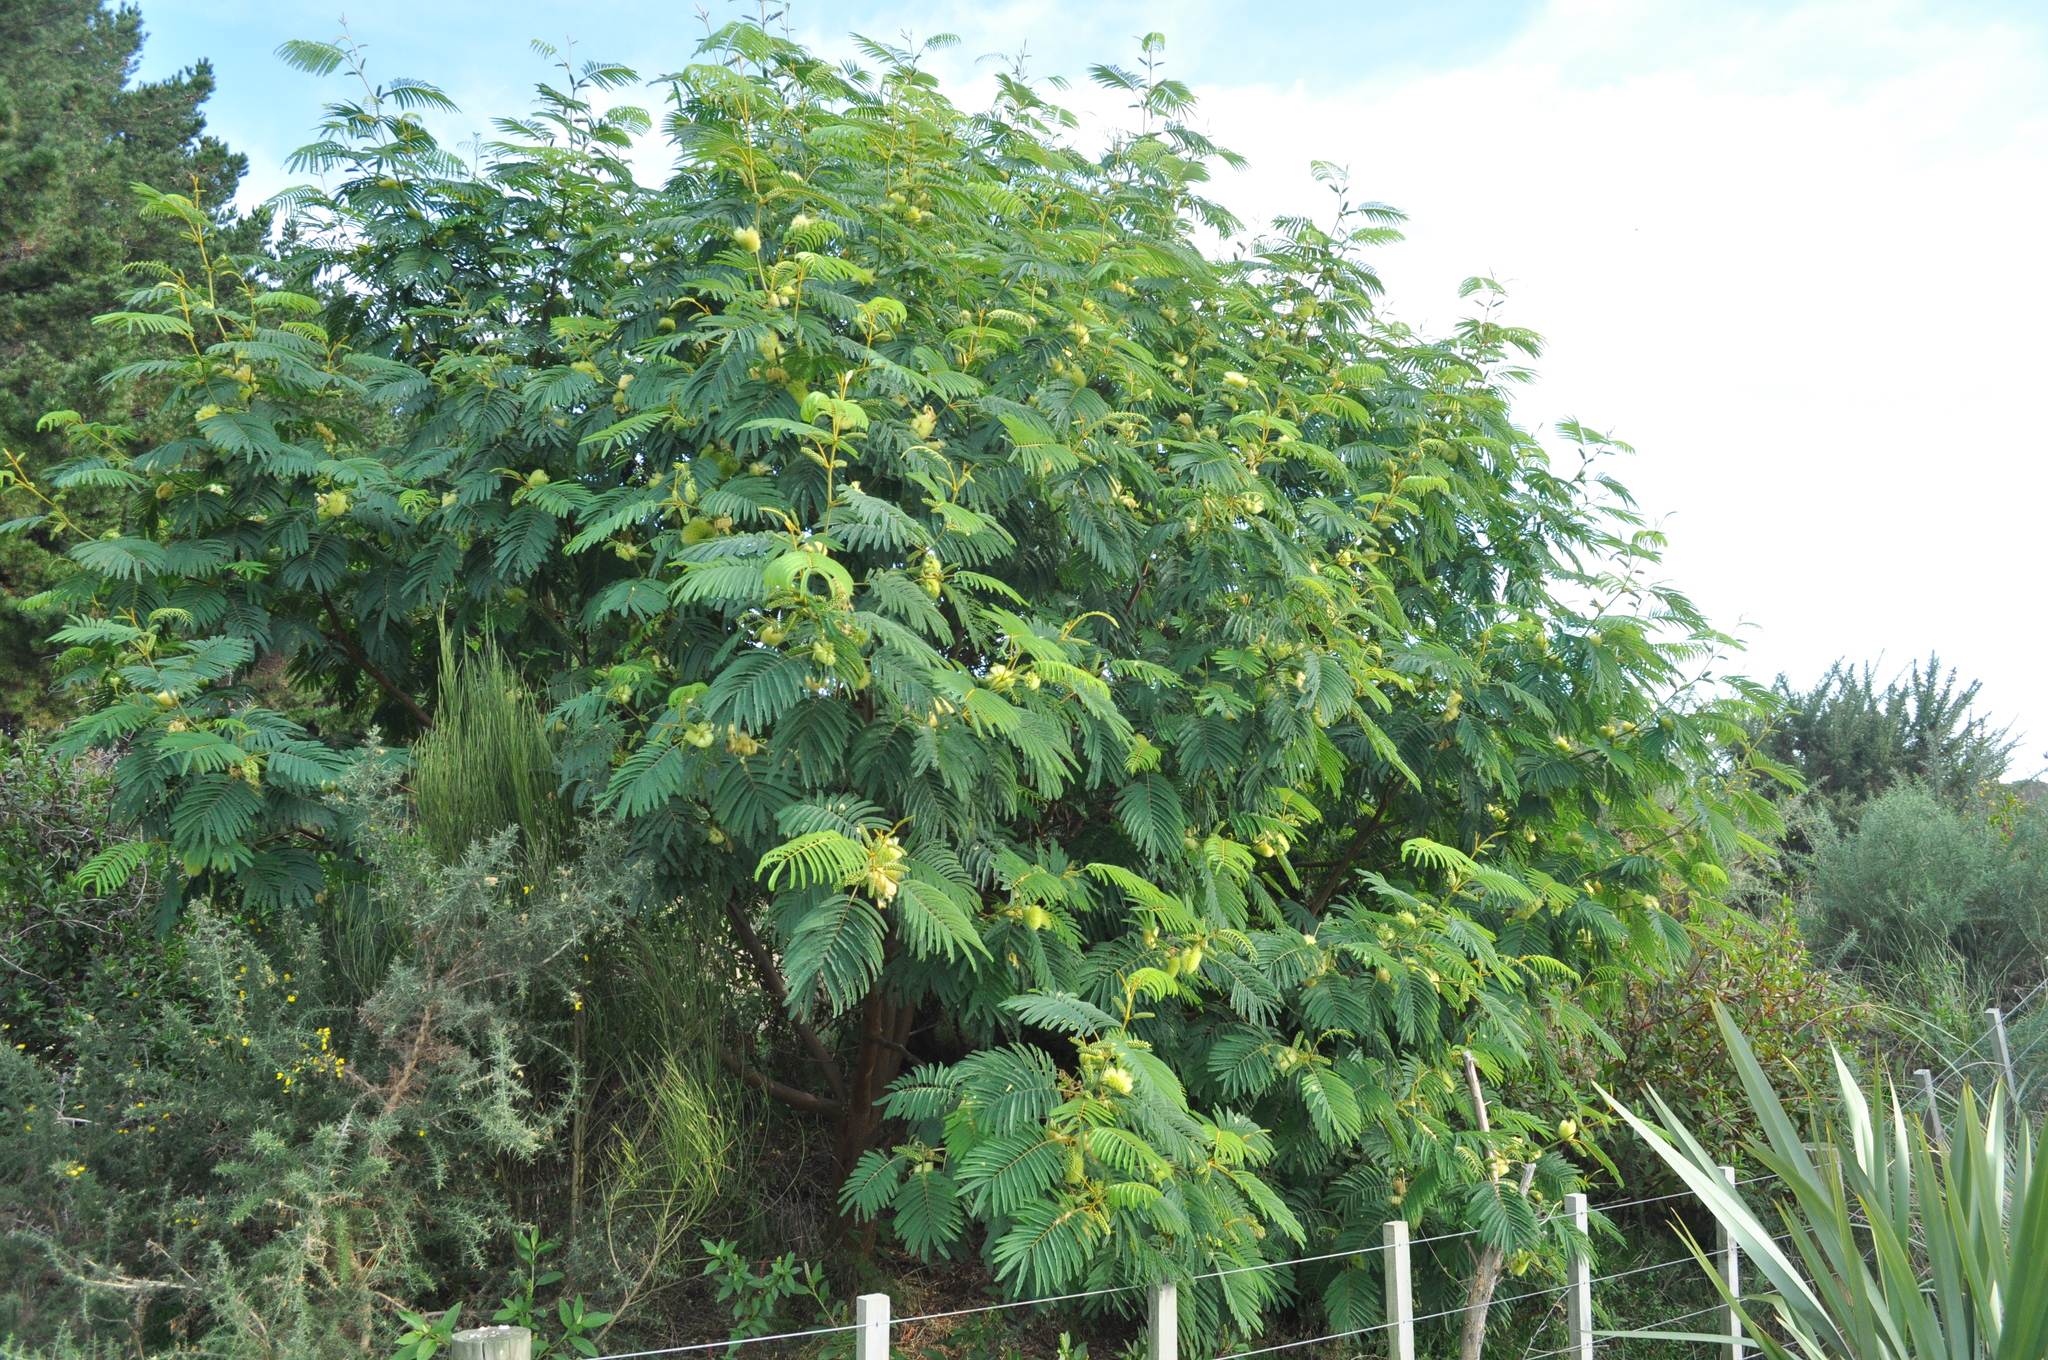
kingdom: Plantae
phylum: Tracheophyta
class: Magnoliopsida
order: Fabales
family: Fabaceae
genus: Paraserianthes
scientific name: Paraserianthes lophantha
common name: Plume albizia
